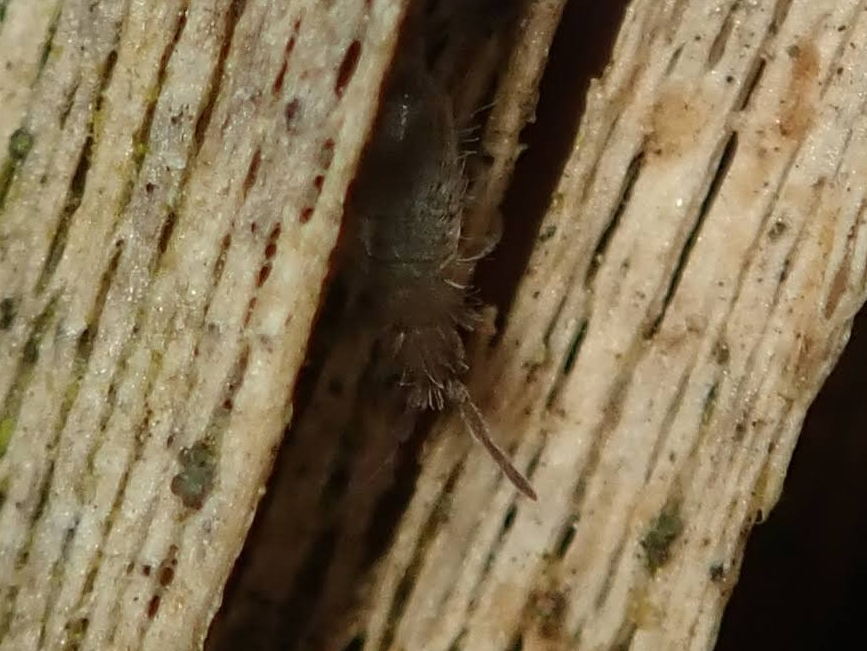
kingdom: Animalia
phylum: Arthropoda
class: Collembola
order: Entomobryomorpha
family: Entomobryidae
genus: Entomobrya
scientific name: Entomobrya schoetti
